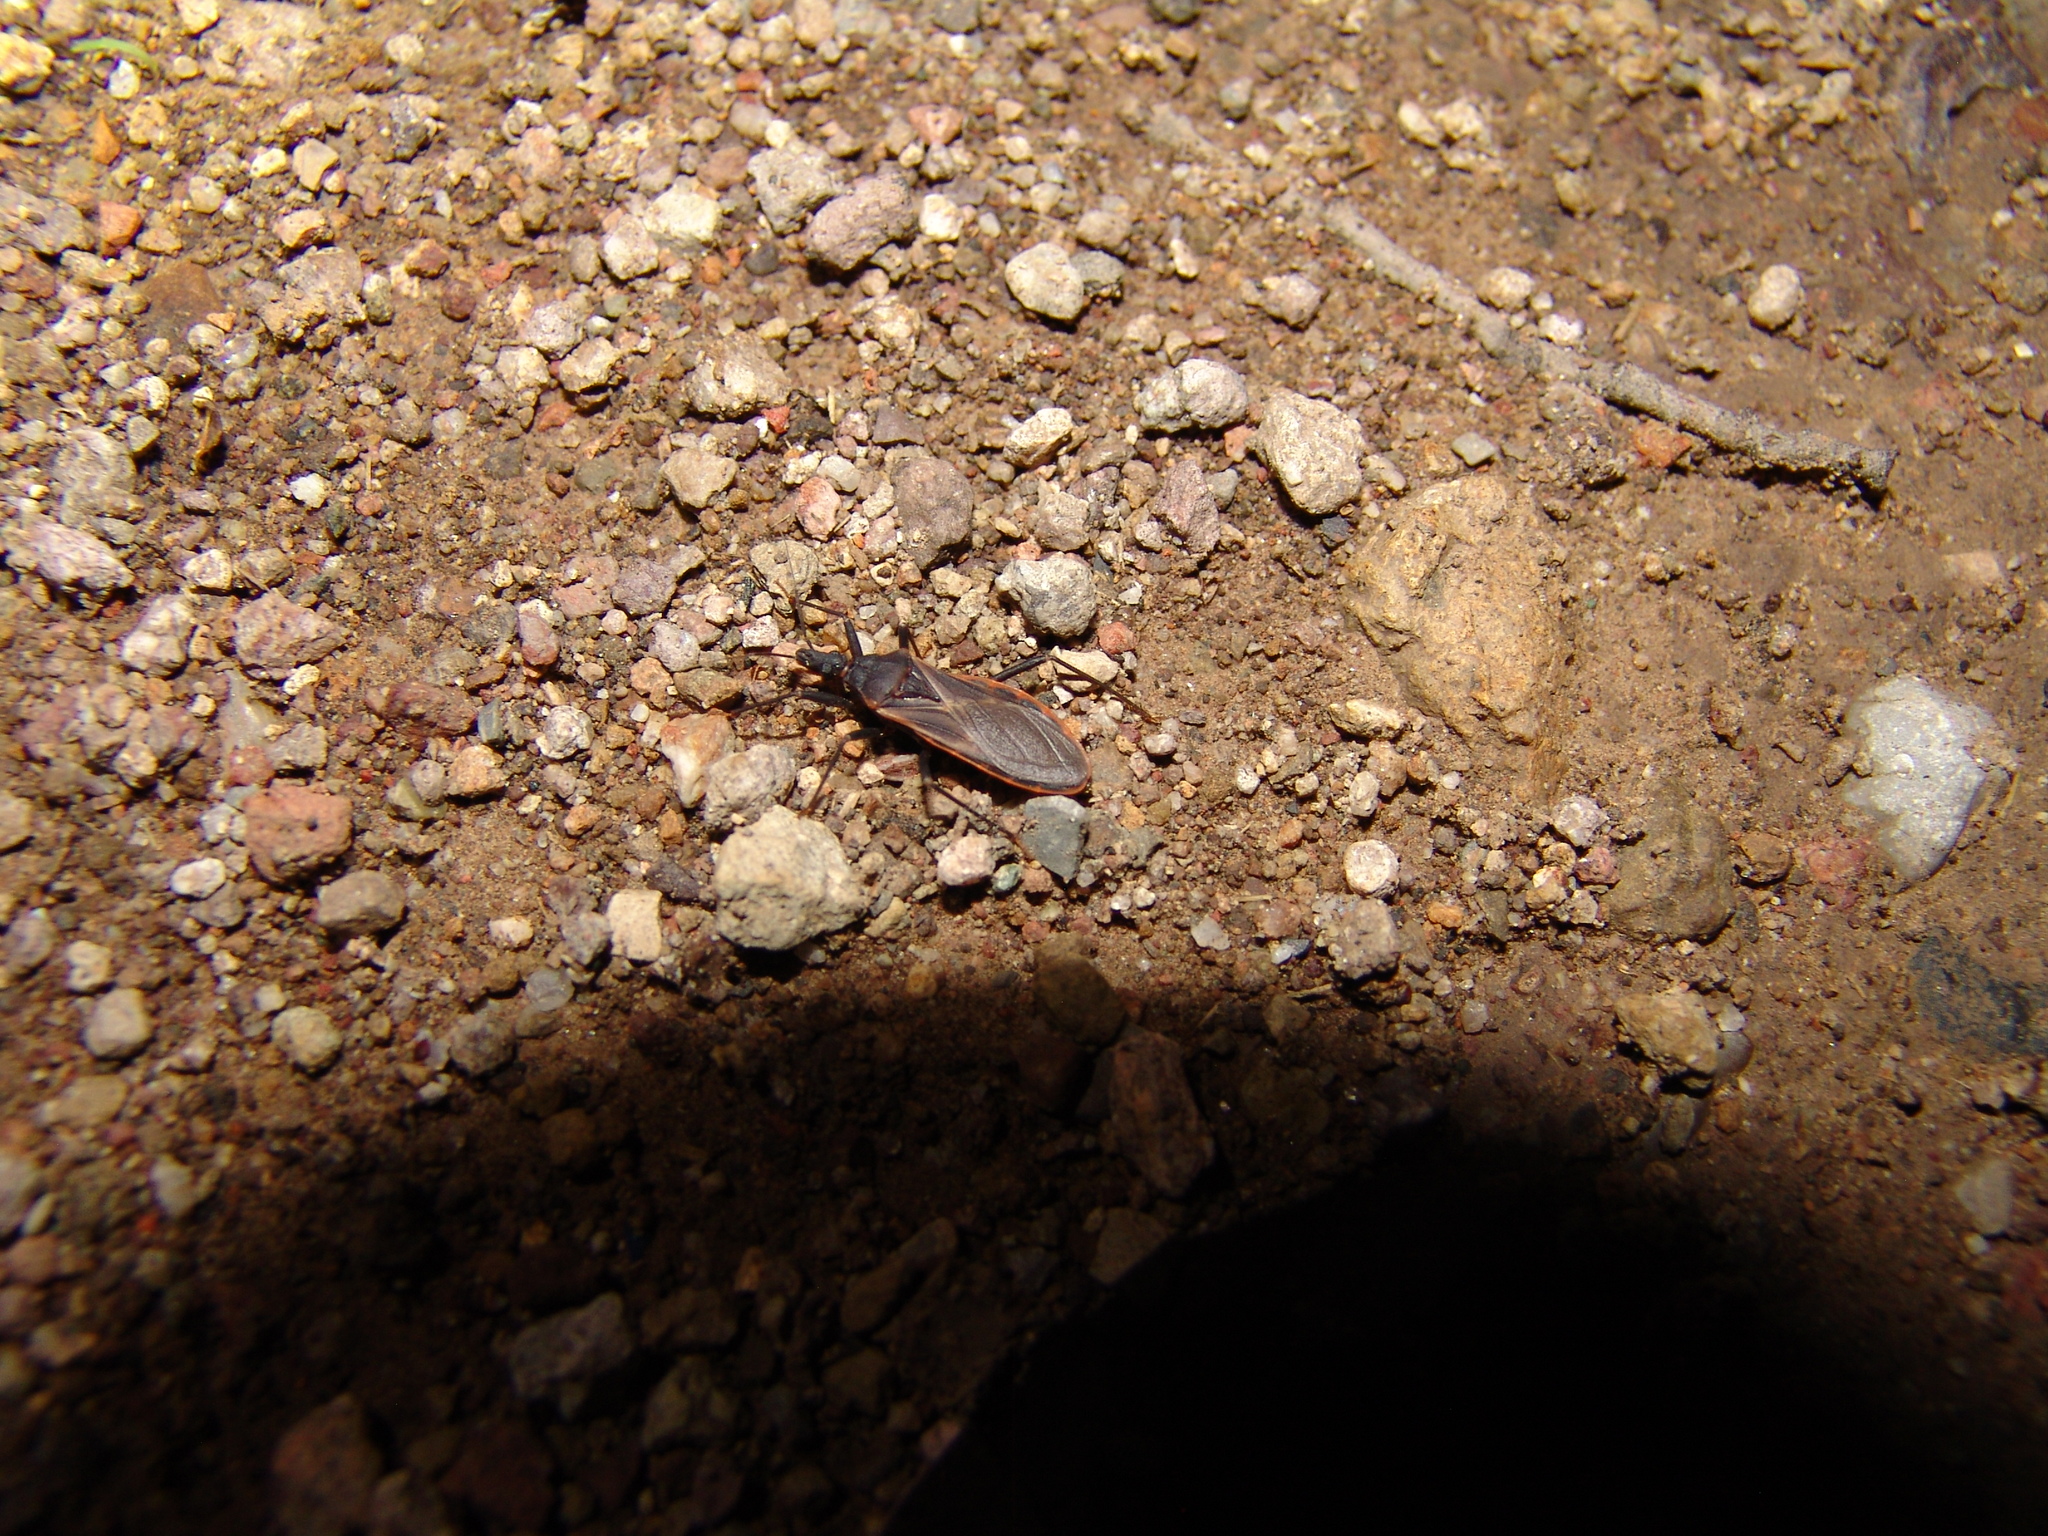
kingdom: Animalia
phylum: Arthropoda
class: Insecta
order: Hemiptera
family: Reduviidae
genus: Triatoma
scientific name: Triatoma rubida
